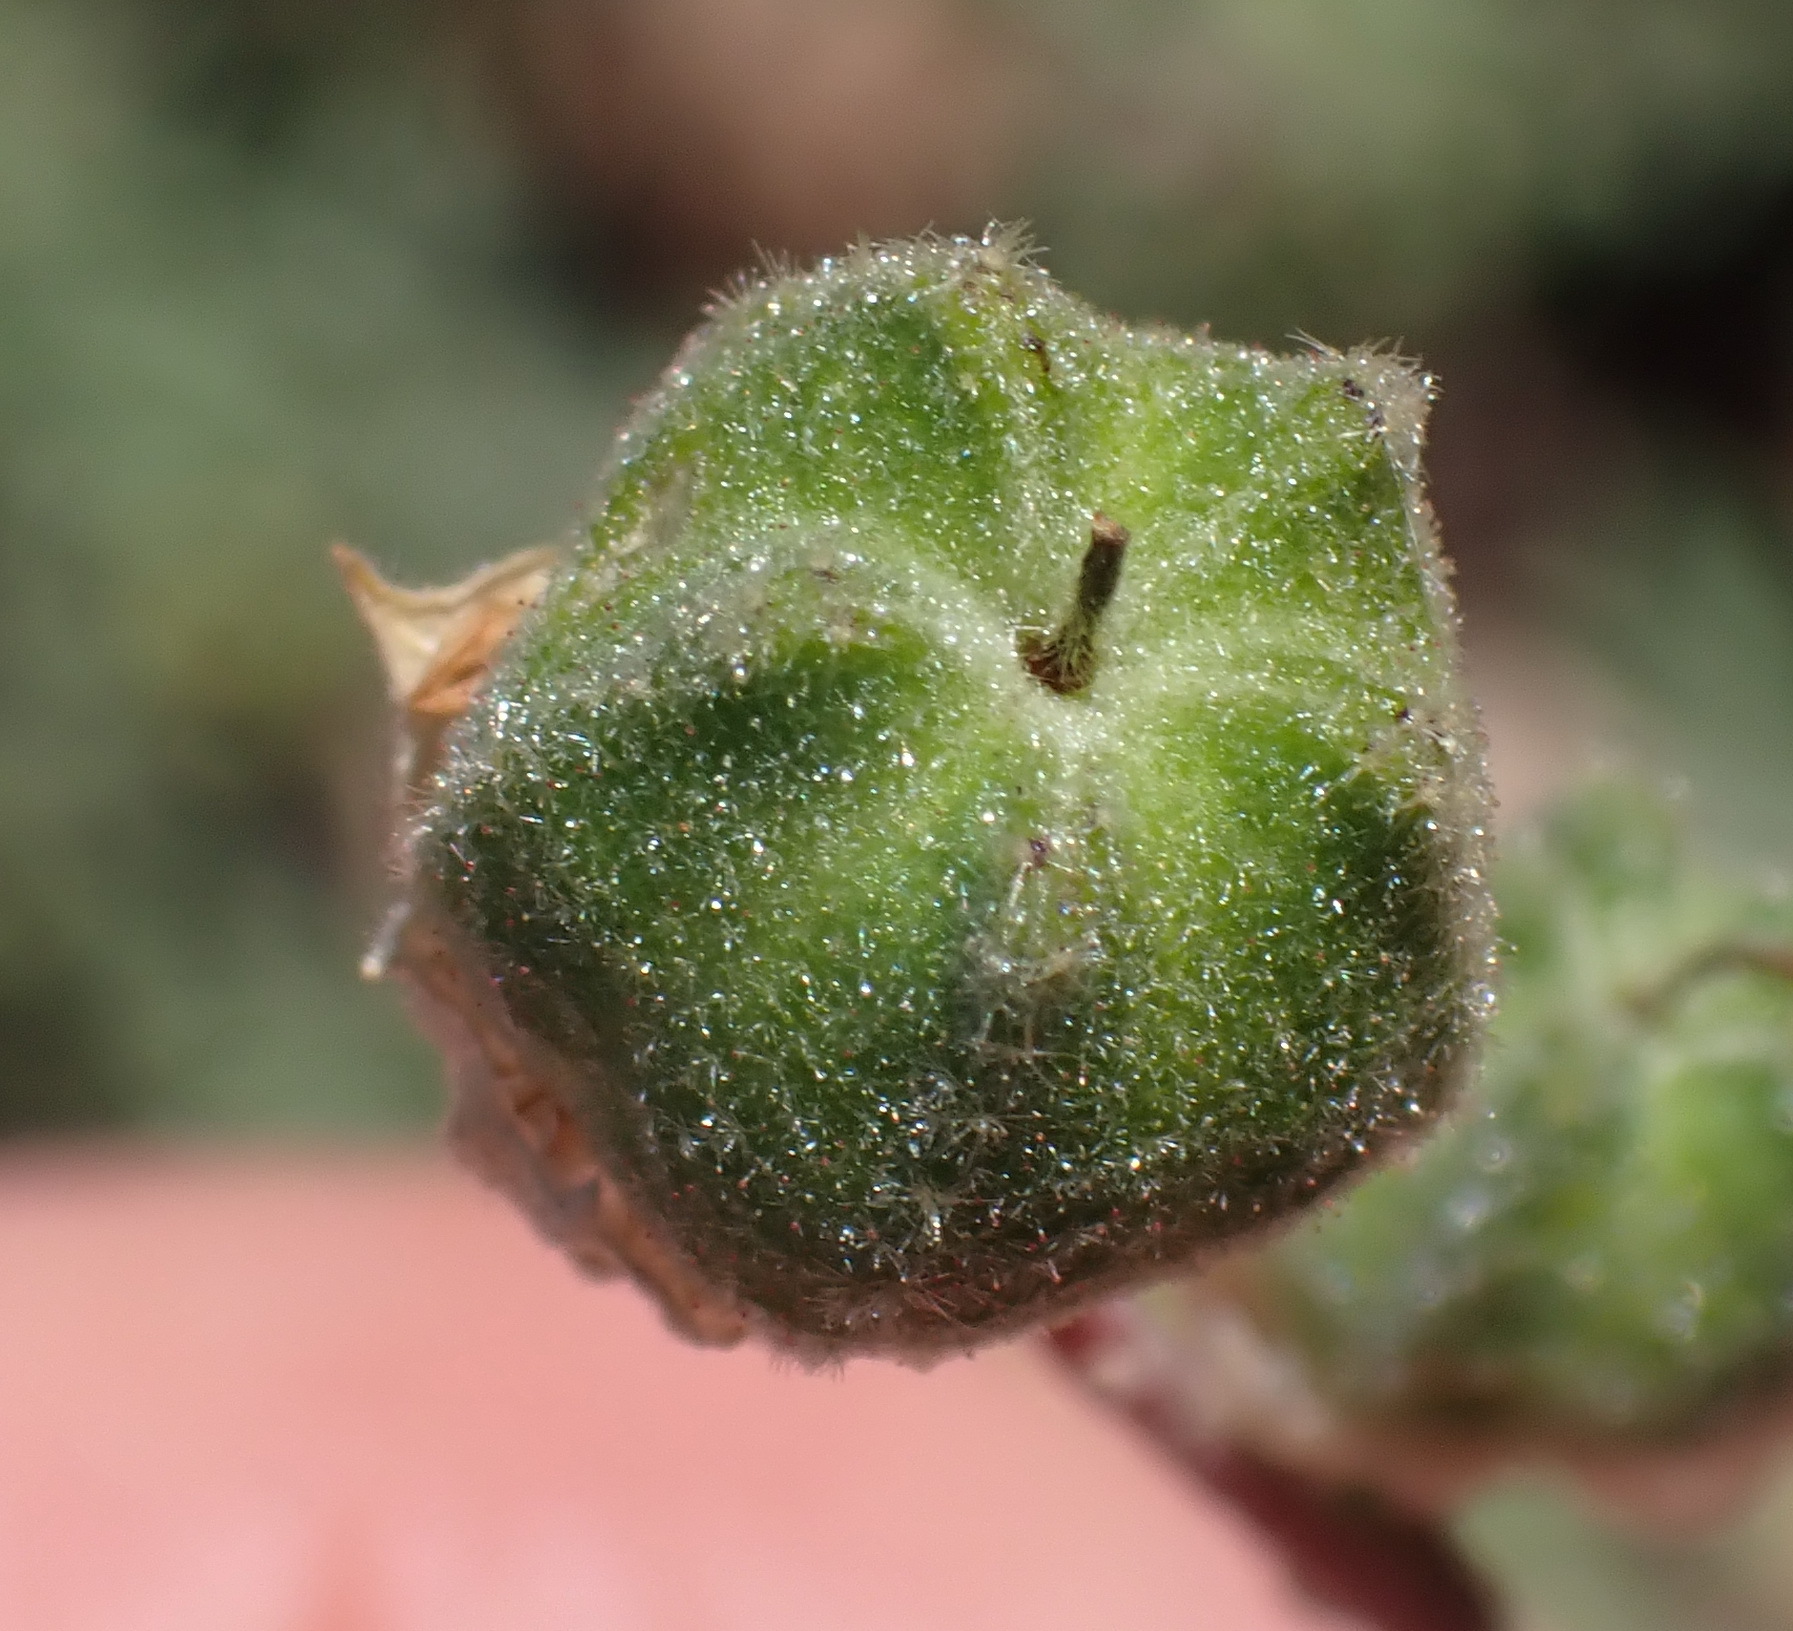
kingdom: Plantae
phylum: Tracheophyta
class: Magnoliopsida
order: Malvales
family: Malvaceae
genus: Hermannia
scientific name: Hermannia gracilis
